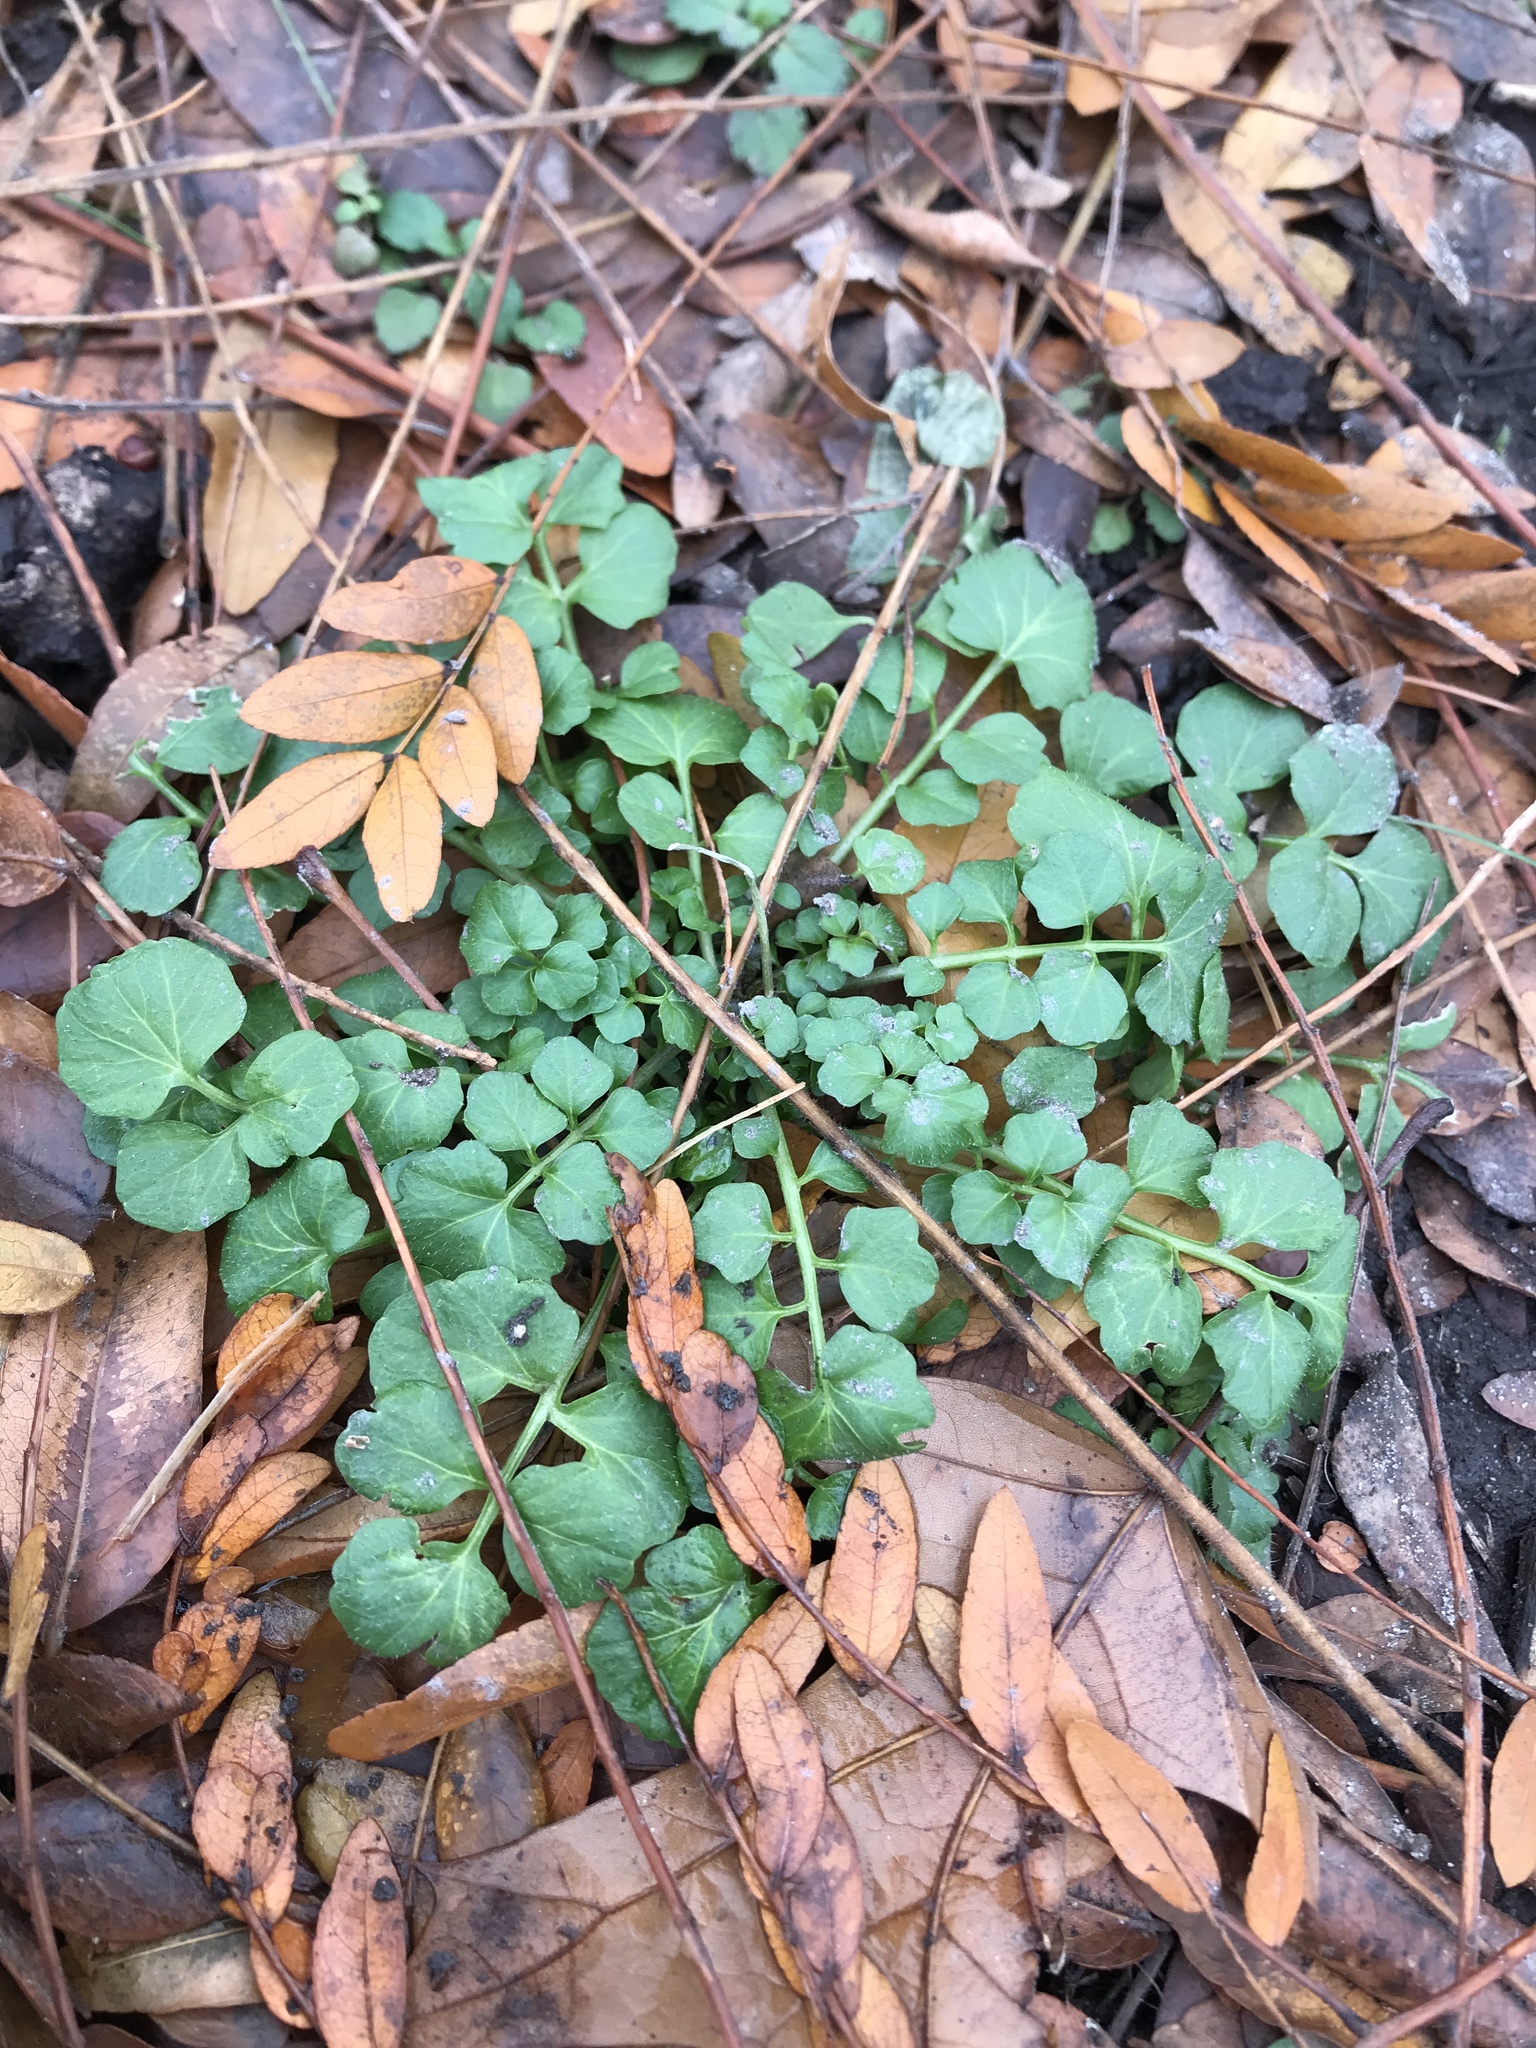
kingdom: Plantae
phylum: Tracheophyta
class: Magnoliopsida
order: Brassicales
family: Brassicaceae
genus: Cardamine
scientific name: Cardamine hirsuta
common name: Hairy bittercress
